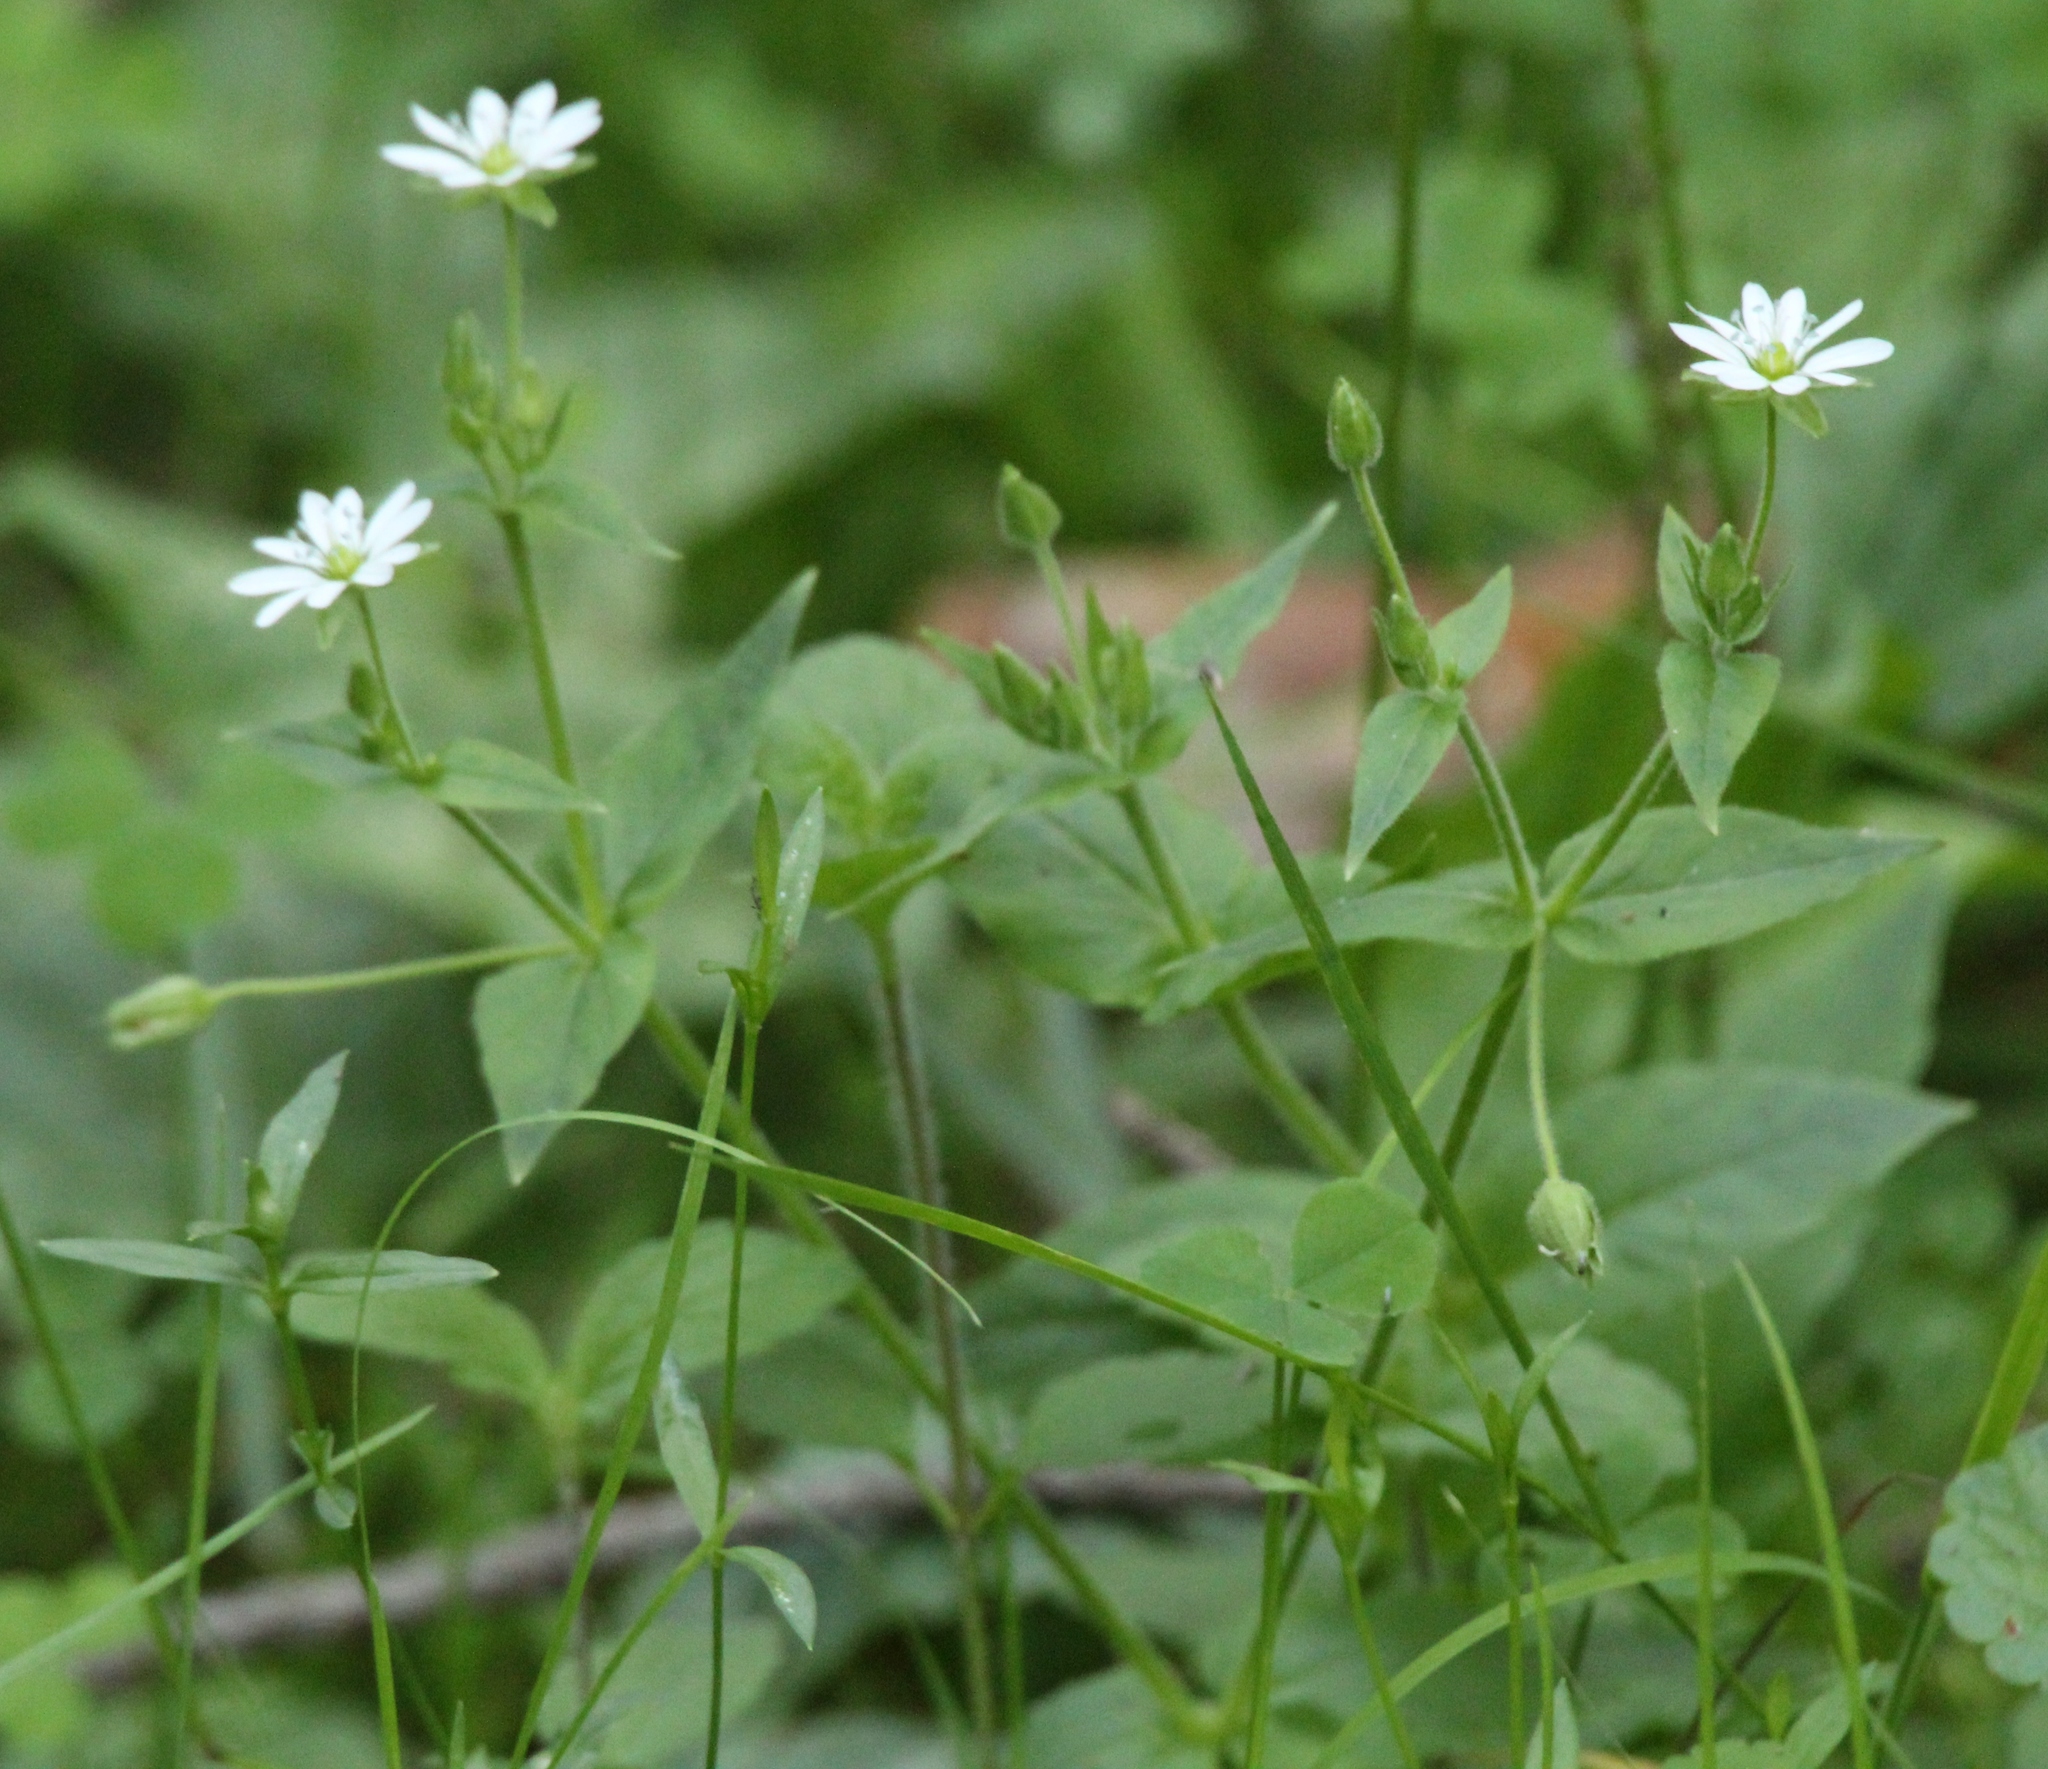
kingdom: Plantae
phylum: Tracheophyta
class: Magnoliopsida
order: Caryophyllales
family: Caryophyllaceae
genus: Stellaria
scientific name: Stellaria aquatica
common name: Water chickweed
